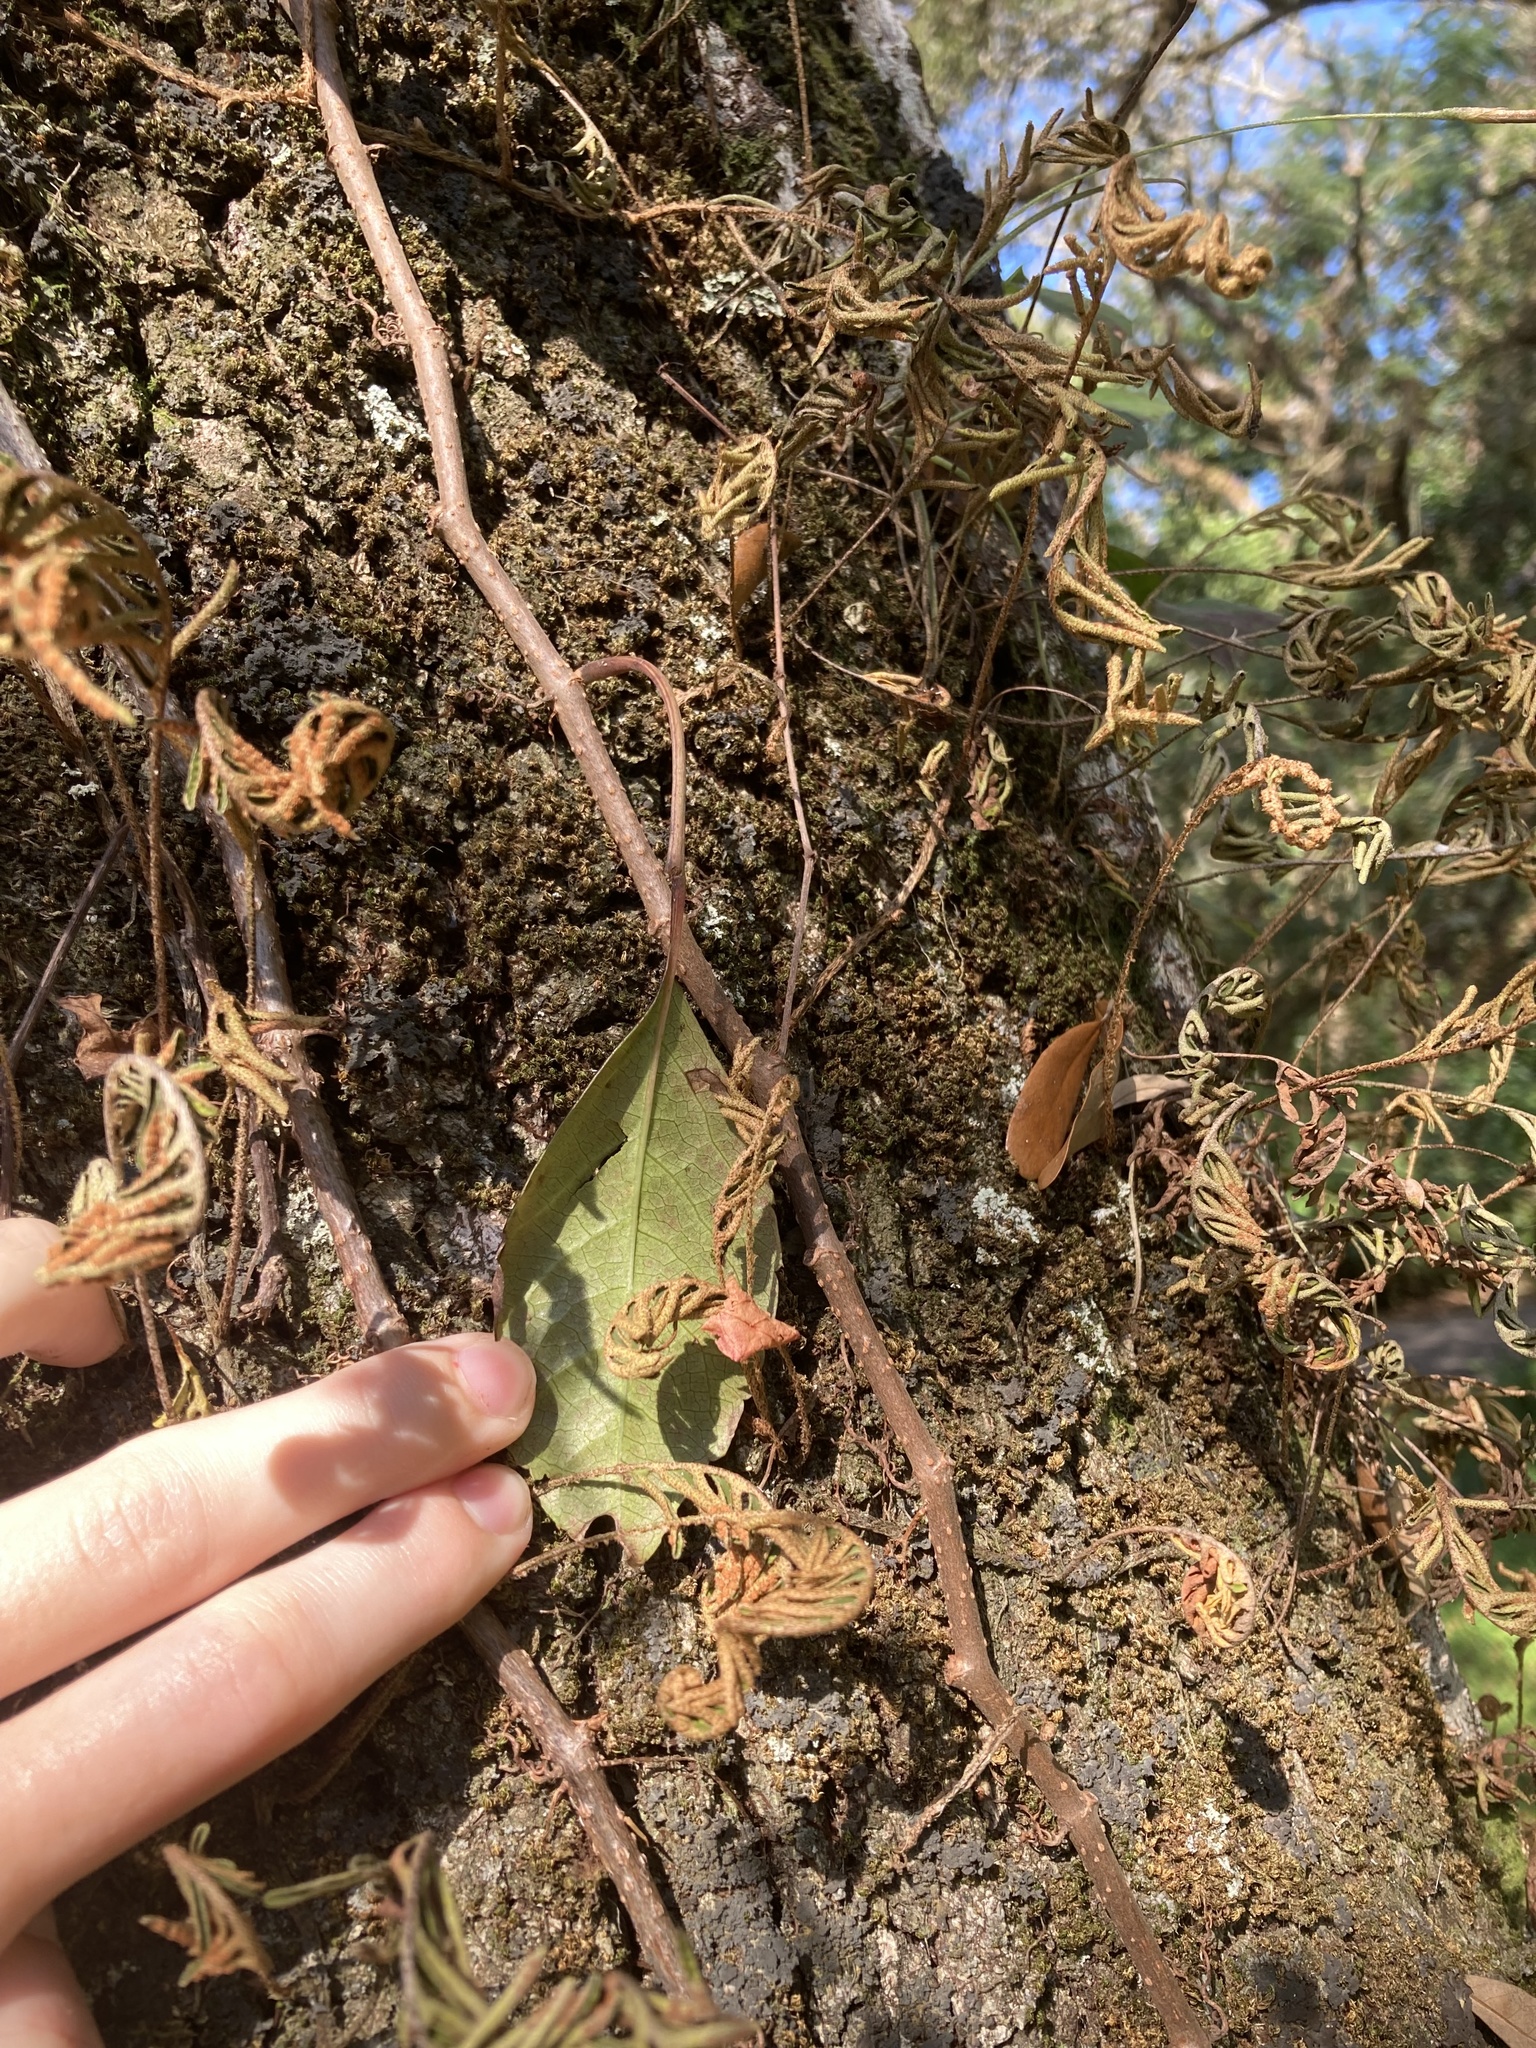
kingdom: Plantae
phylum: Tracheophyta
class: Magnoliopsida
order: Vitales
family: Vitaceae
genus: Parthenocissus
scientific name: Parthenocissus quinquefolia
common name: Virginia-creeper
